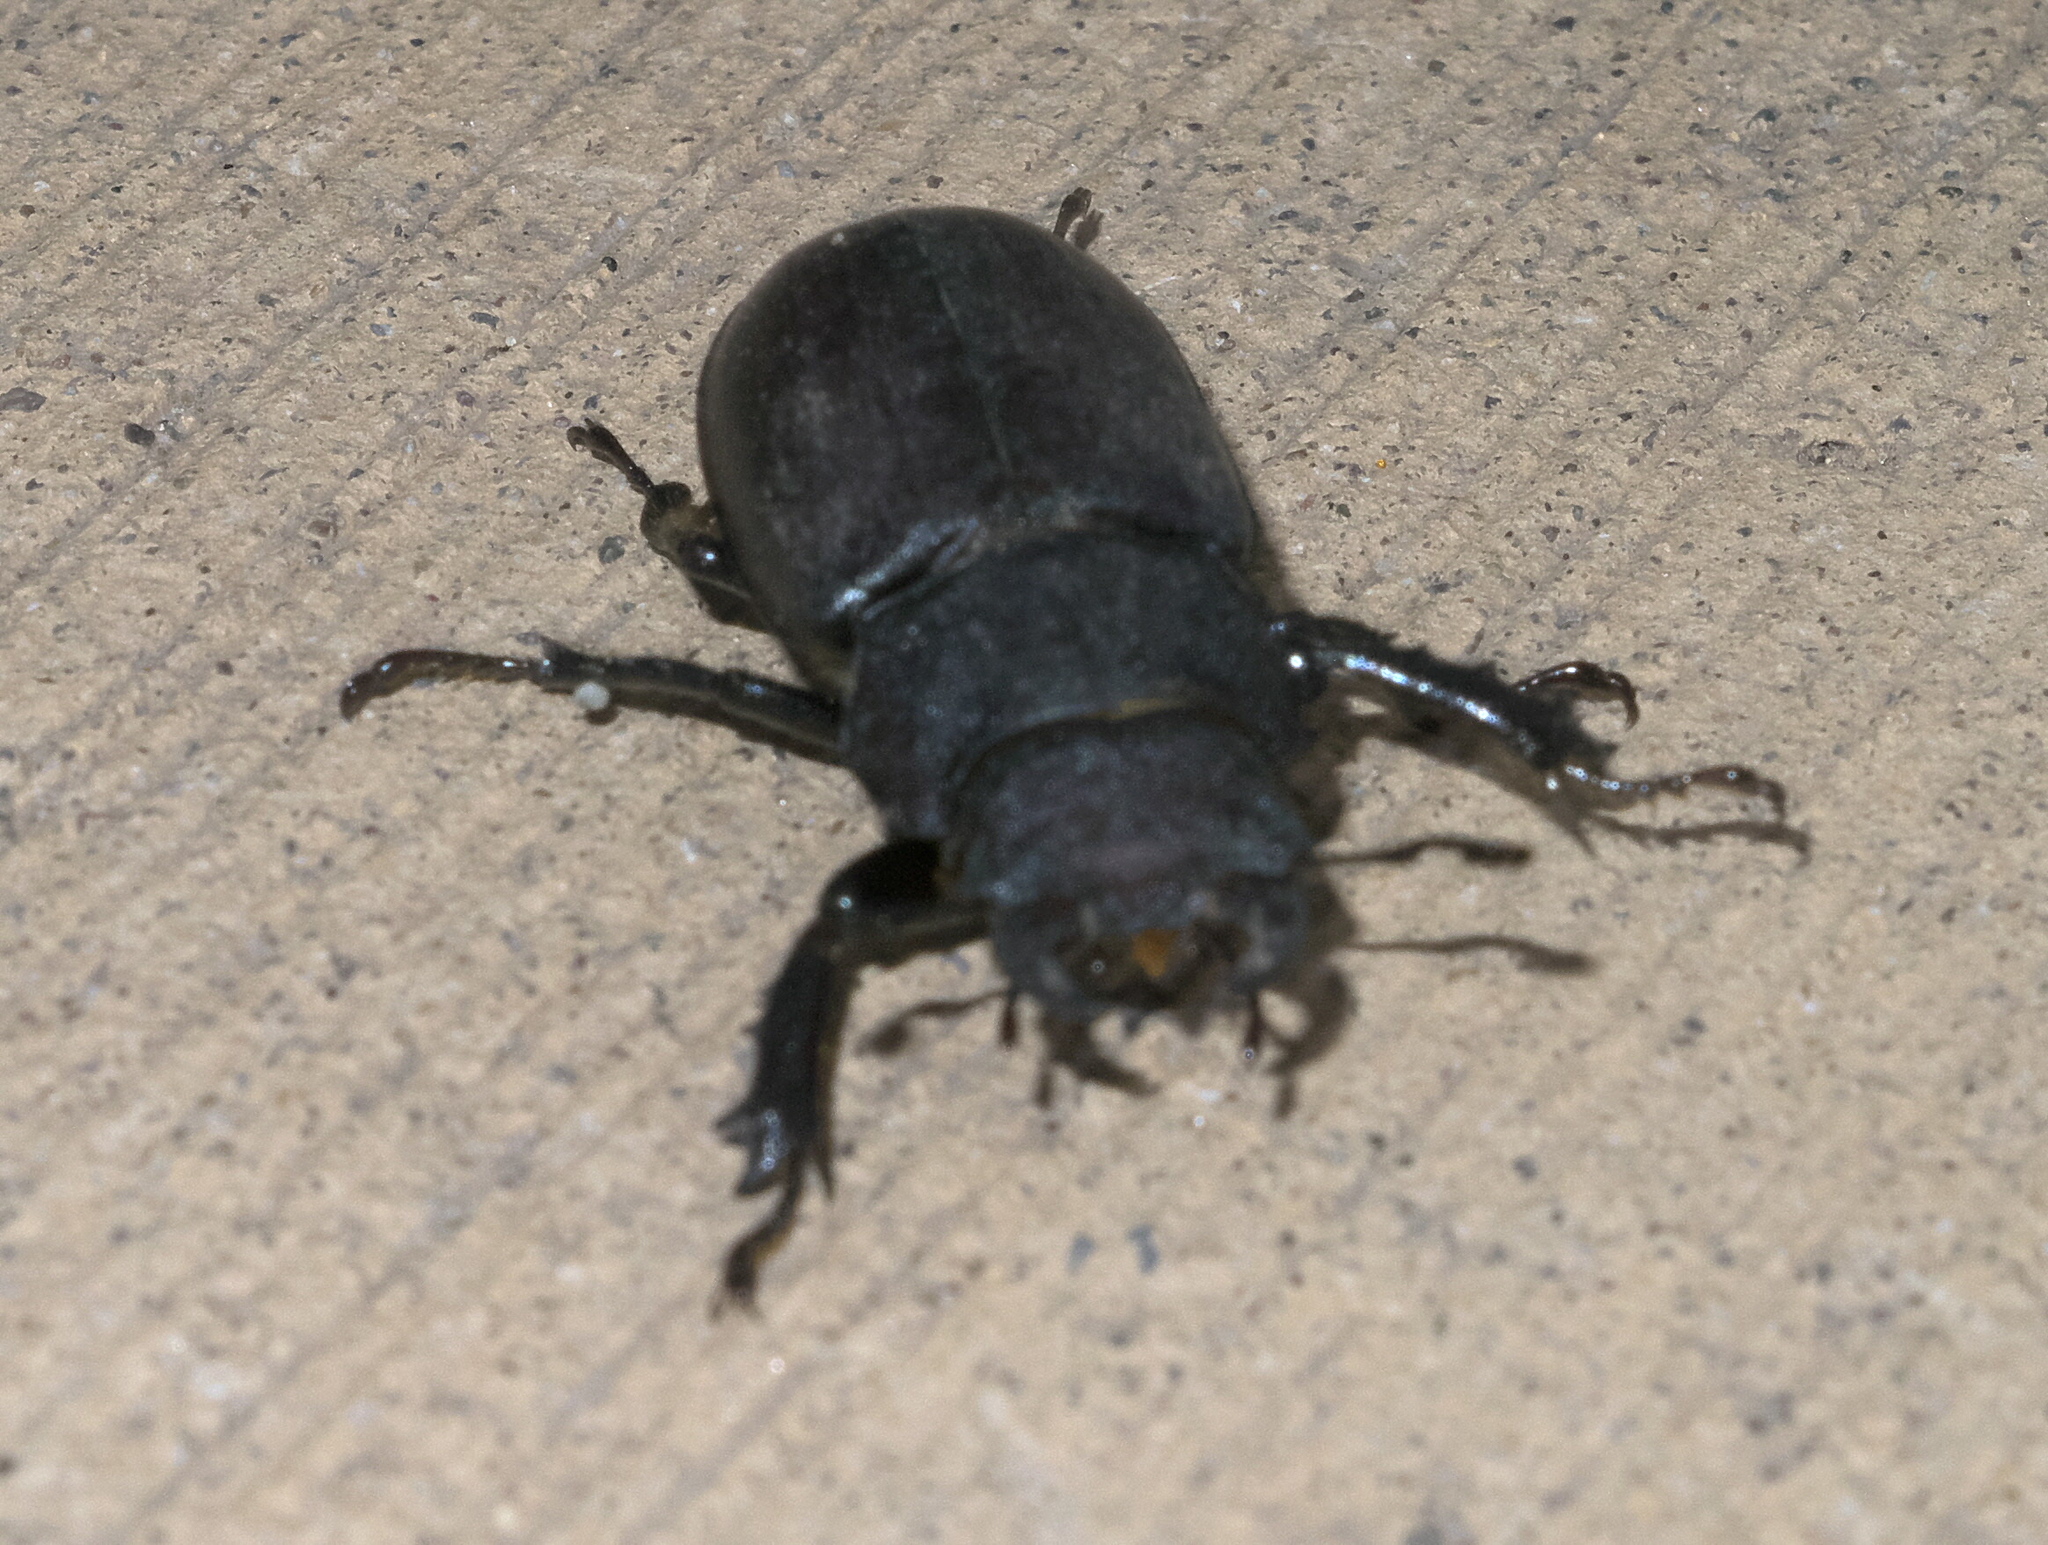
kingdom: Animalia
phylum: Arthropoda
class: Insecta
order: Coleoptera
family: Lucanidae
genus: Lucanus
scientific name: Lucanus mazama
